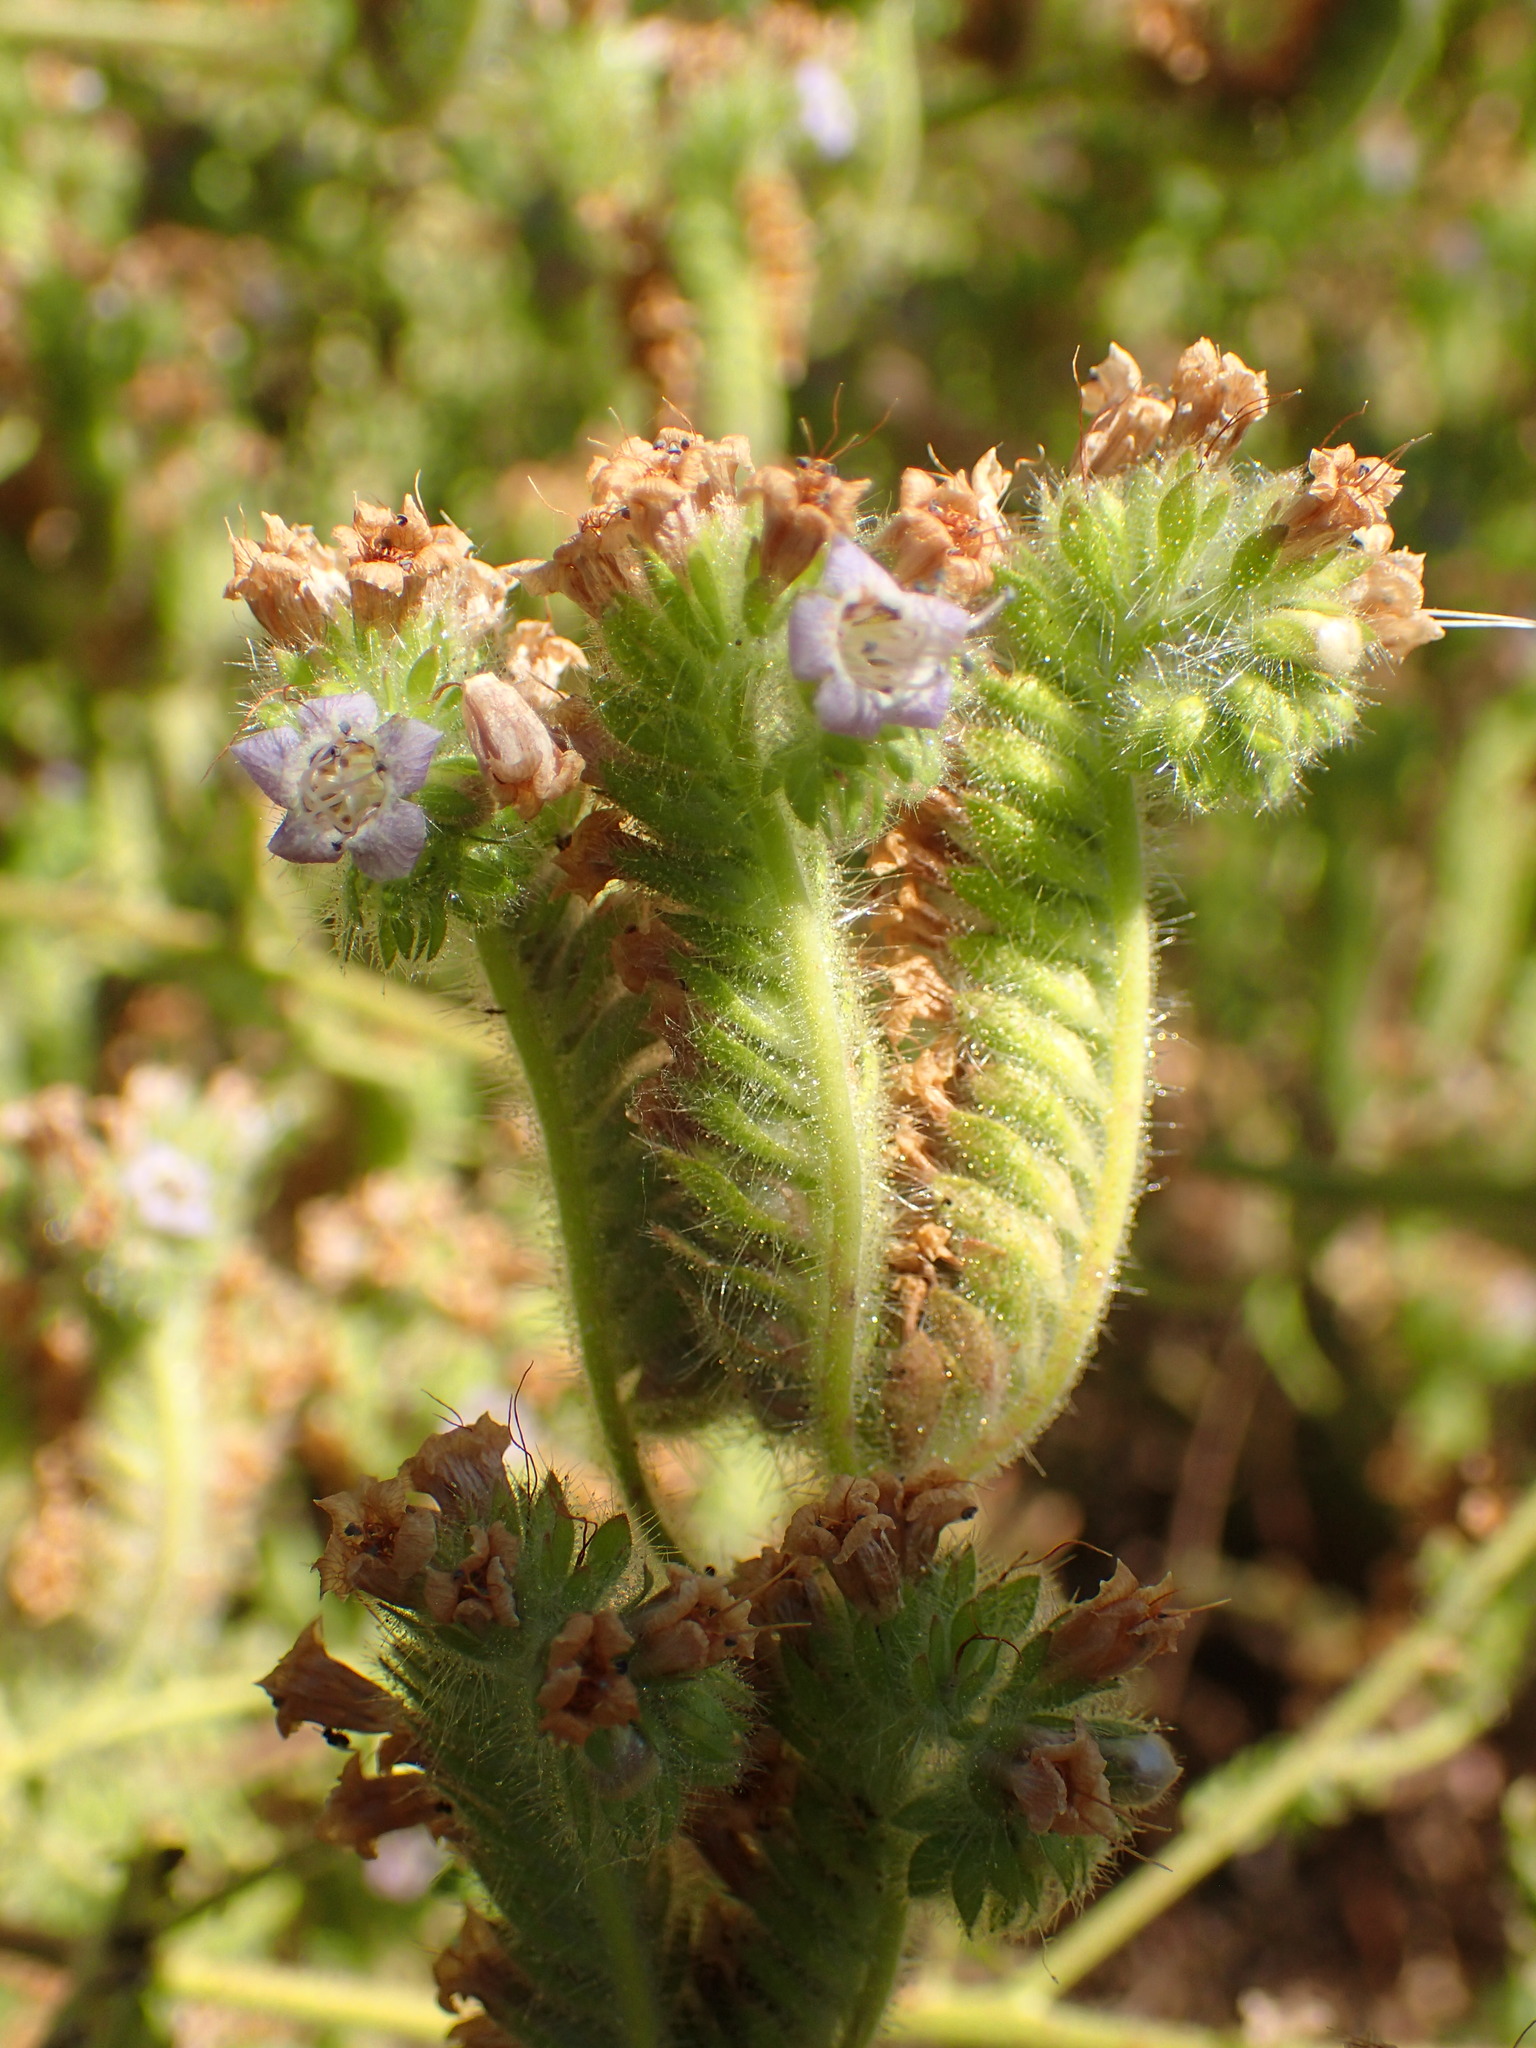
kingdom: Plantae
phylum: Tracheophyta
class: Magnoliopsida
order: Boraginales
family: Hydrophyllaceae
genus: Phacelia
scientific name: Phacelia ramosissima
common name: Branching phacelia
